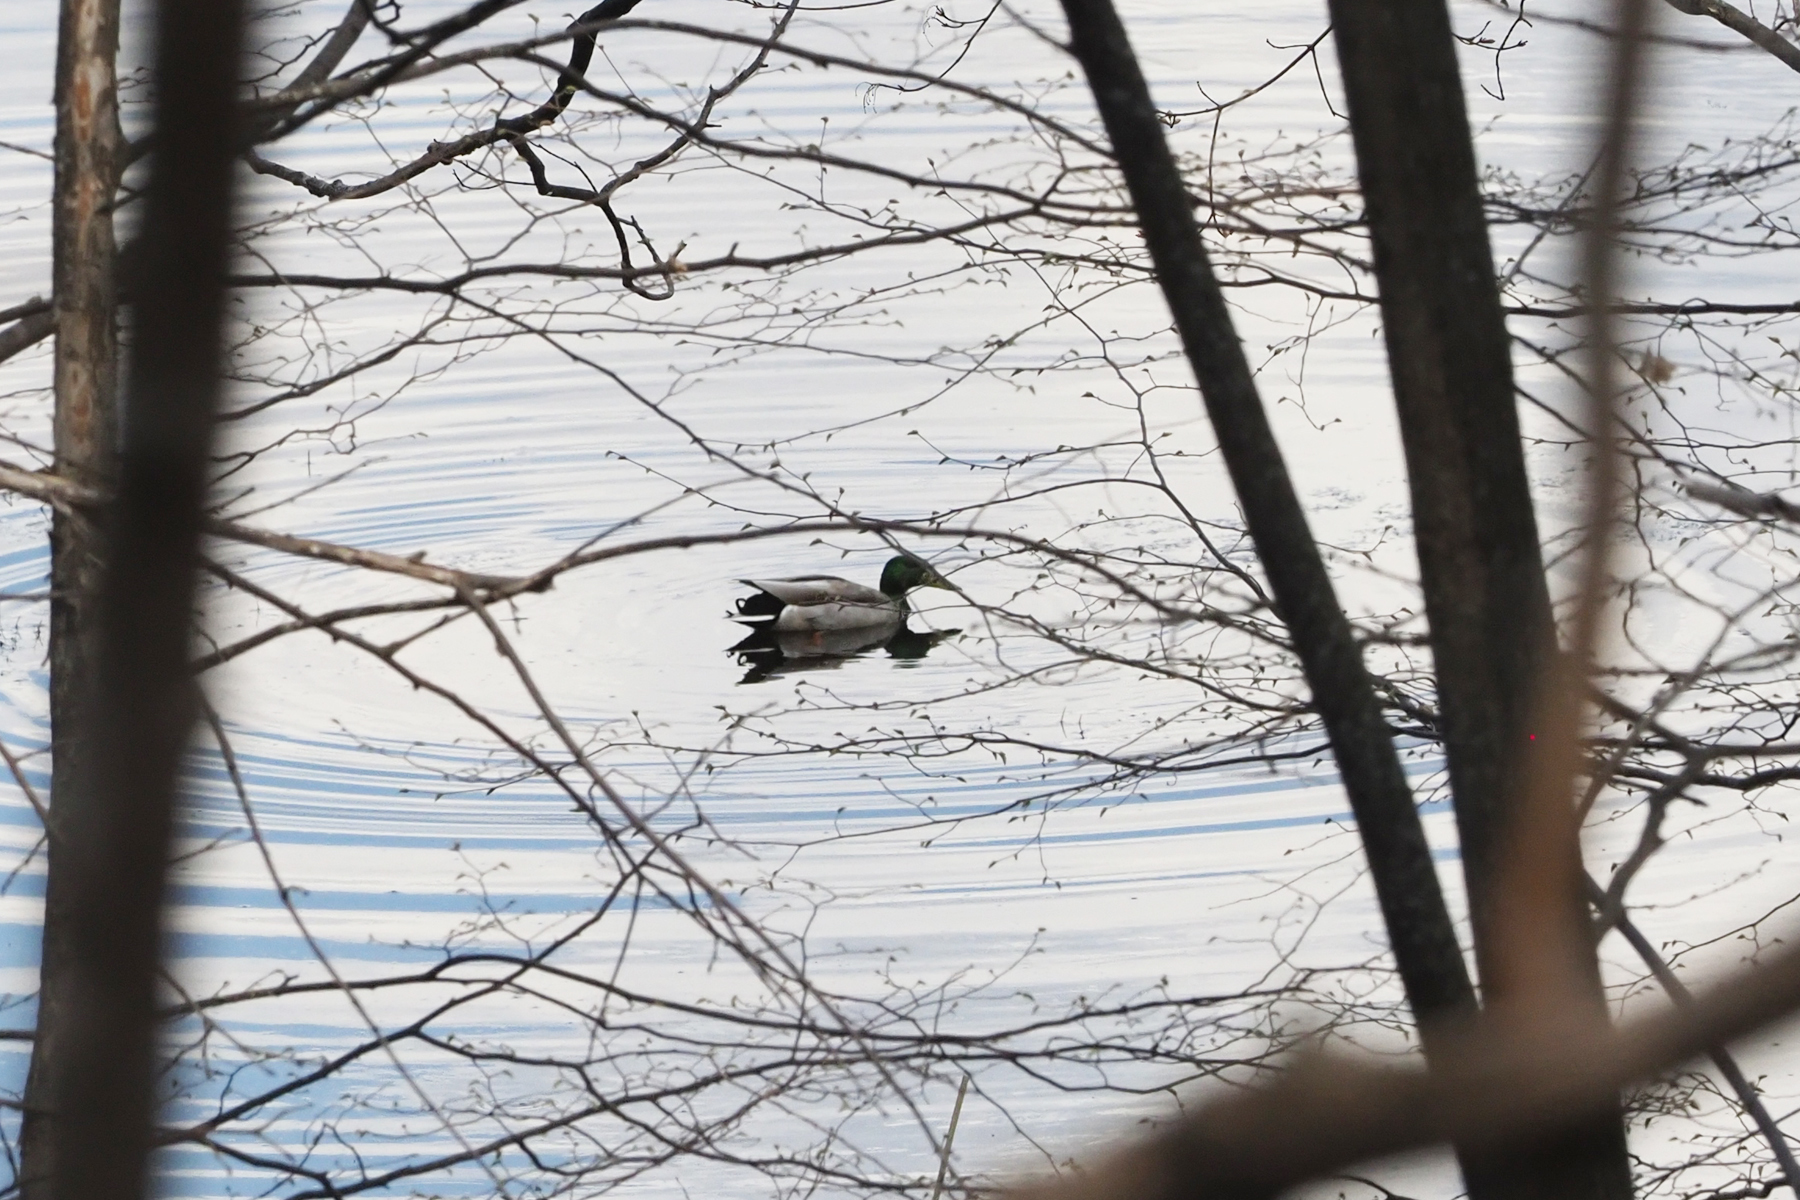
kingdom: Animalia
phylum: Chordata
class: Aves
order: Anseriformes
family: Anatidae
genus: Anas
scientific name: Anas platyrhynchos
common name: Mallard
